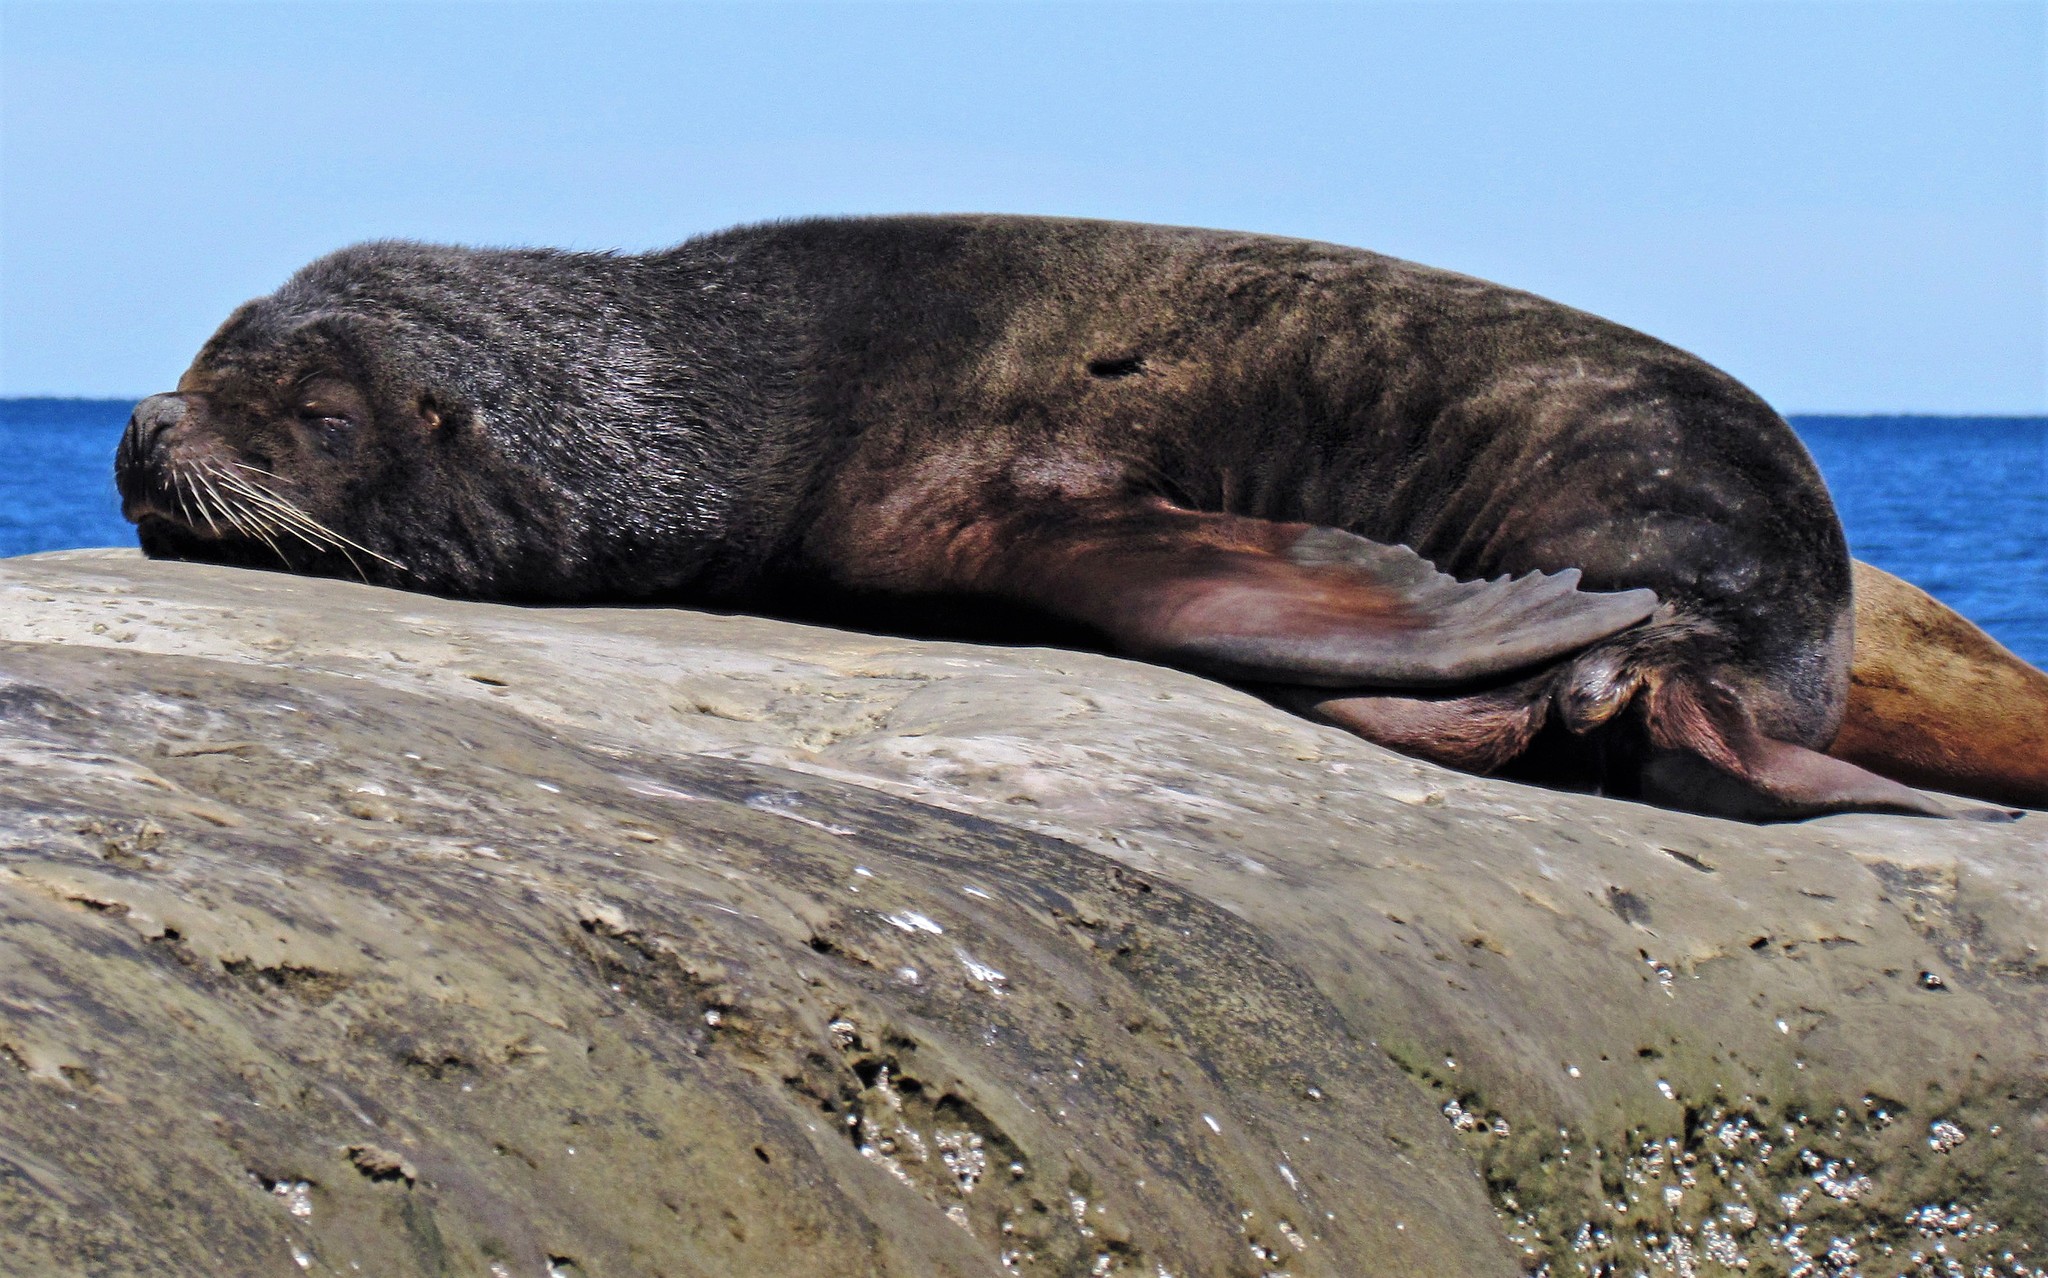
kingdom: Animalia
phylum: Chordata
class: Mammalia
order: Carnivora
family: Otariidae
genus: Otaria
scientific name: Otaria byronia
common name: South american sea lion
